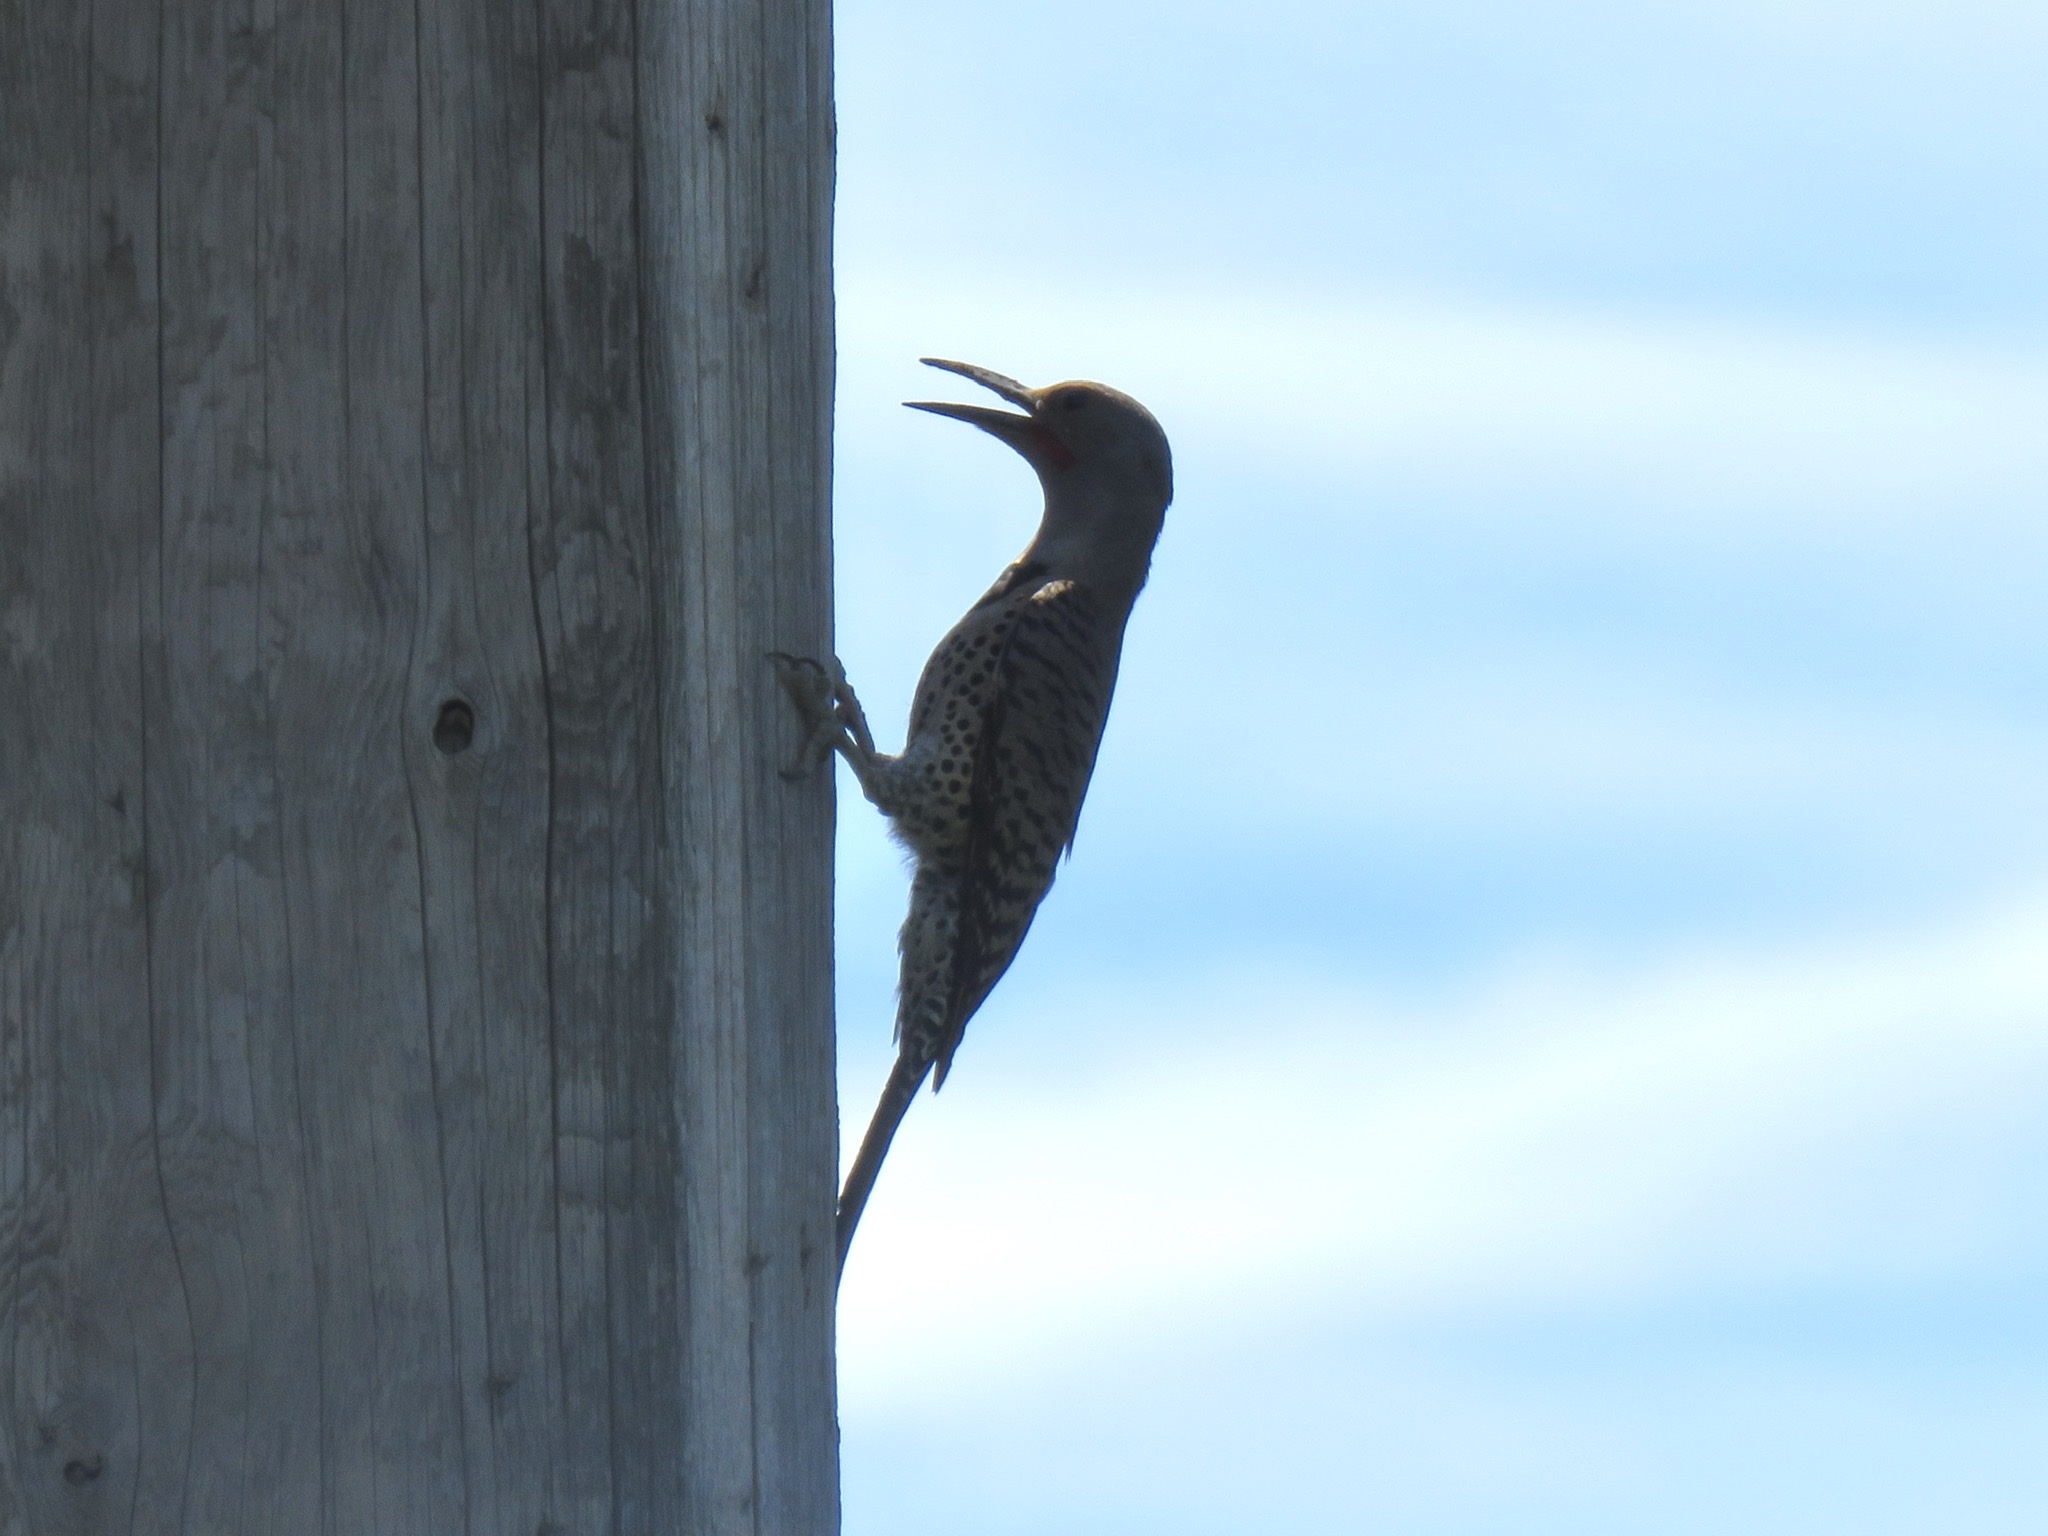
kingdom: Animalia
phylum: Chordata
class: Aves
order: Piciformes
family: Picidae
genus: Colaptes
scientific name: Colaptes auratus
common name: Northern flicker
